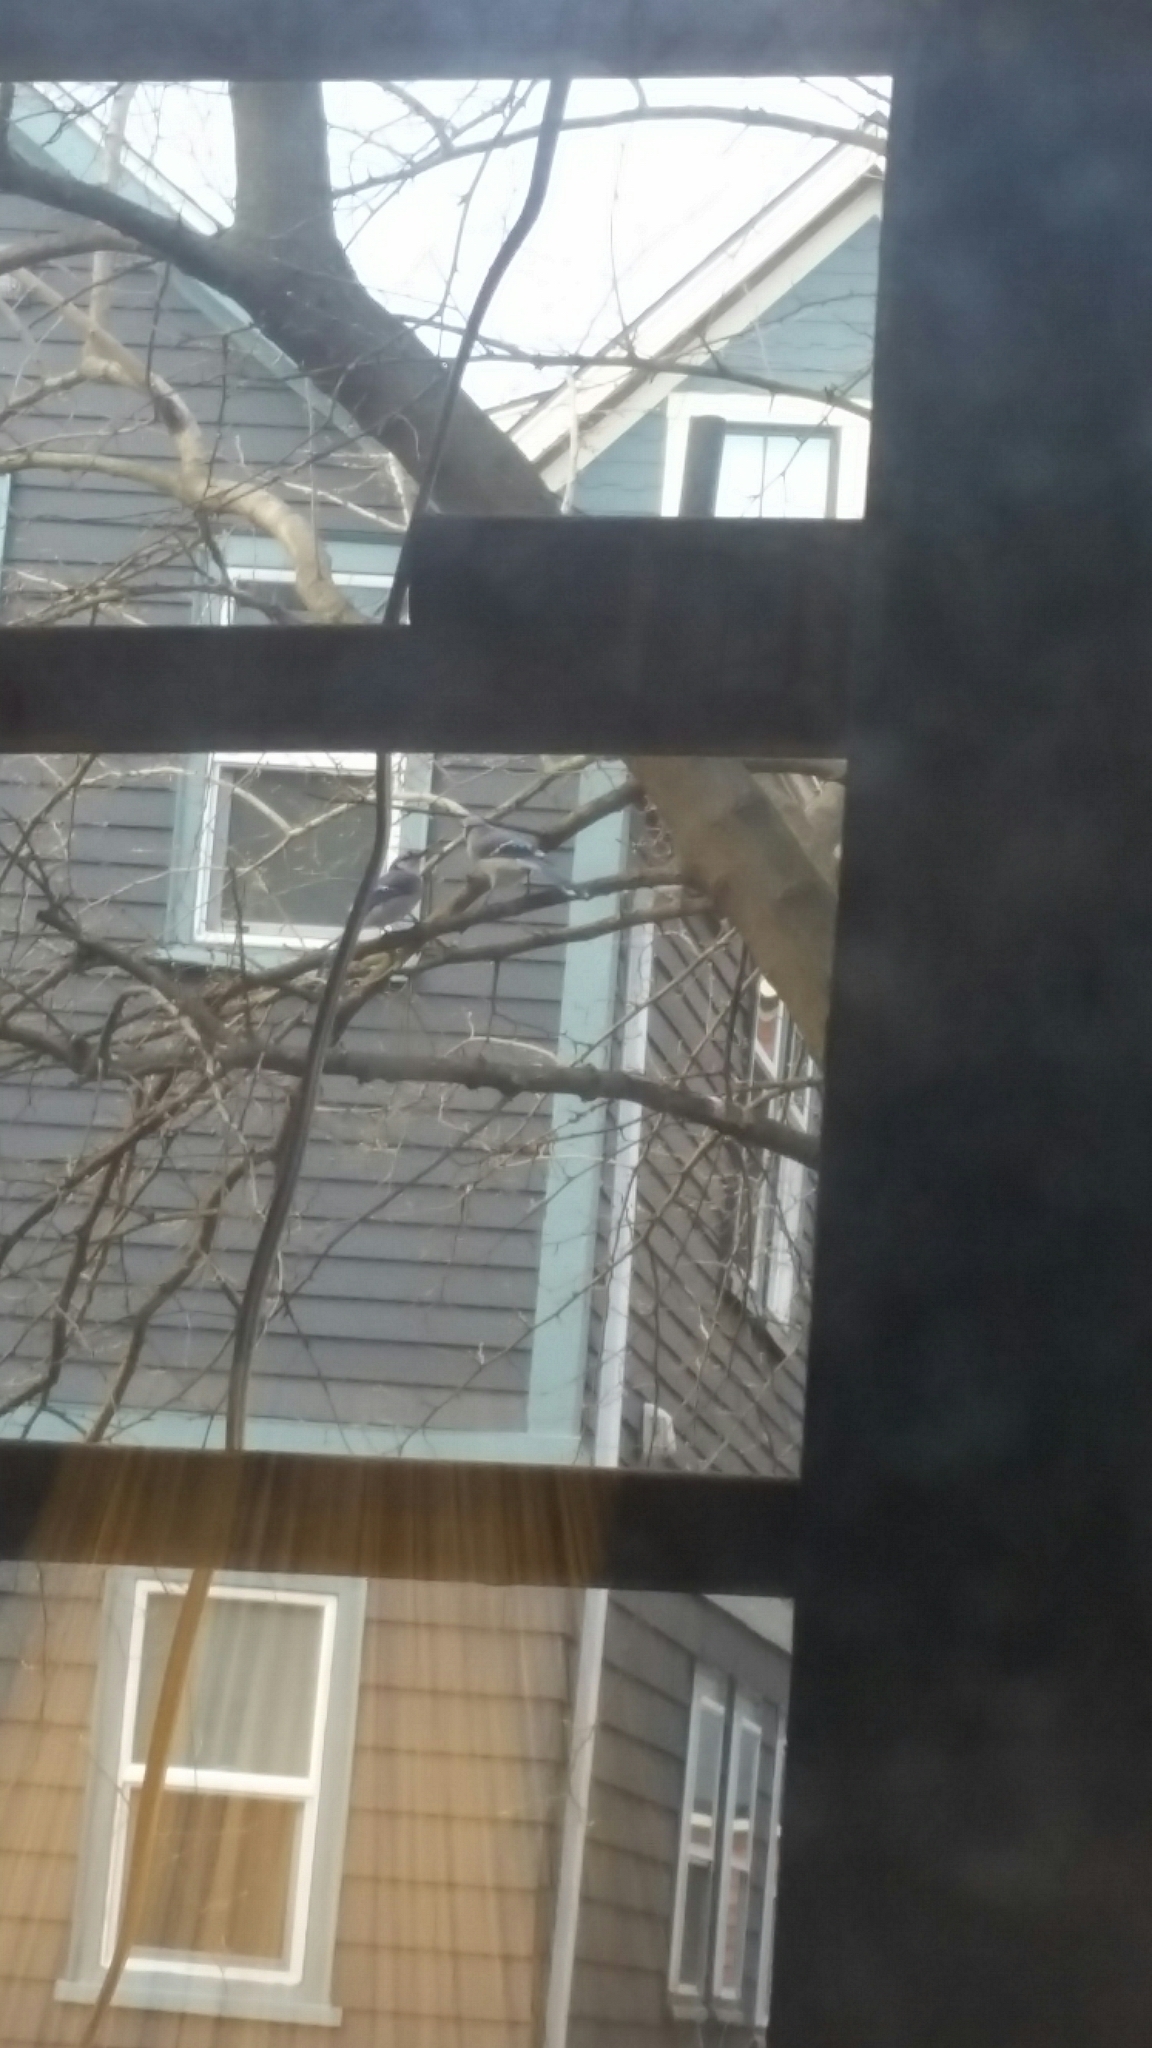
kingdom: Animalia
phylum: Chordata
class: Aves
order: Passeriformes
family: Corvidae
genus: Cyanocitta
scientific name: Cyanocitta cristata
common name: Blue jay
